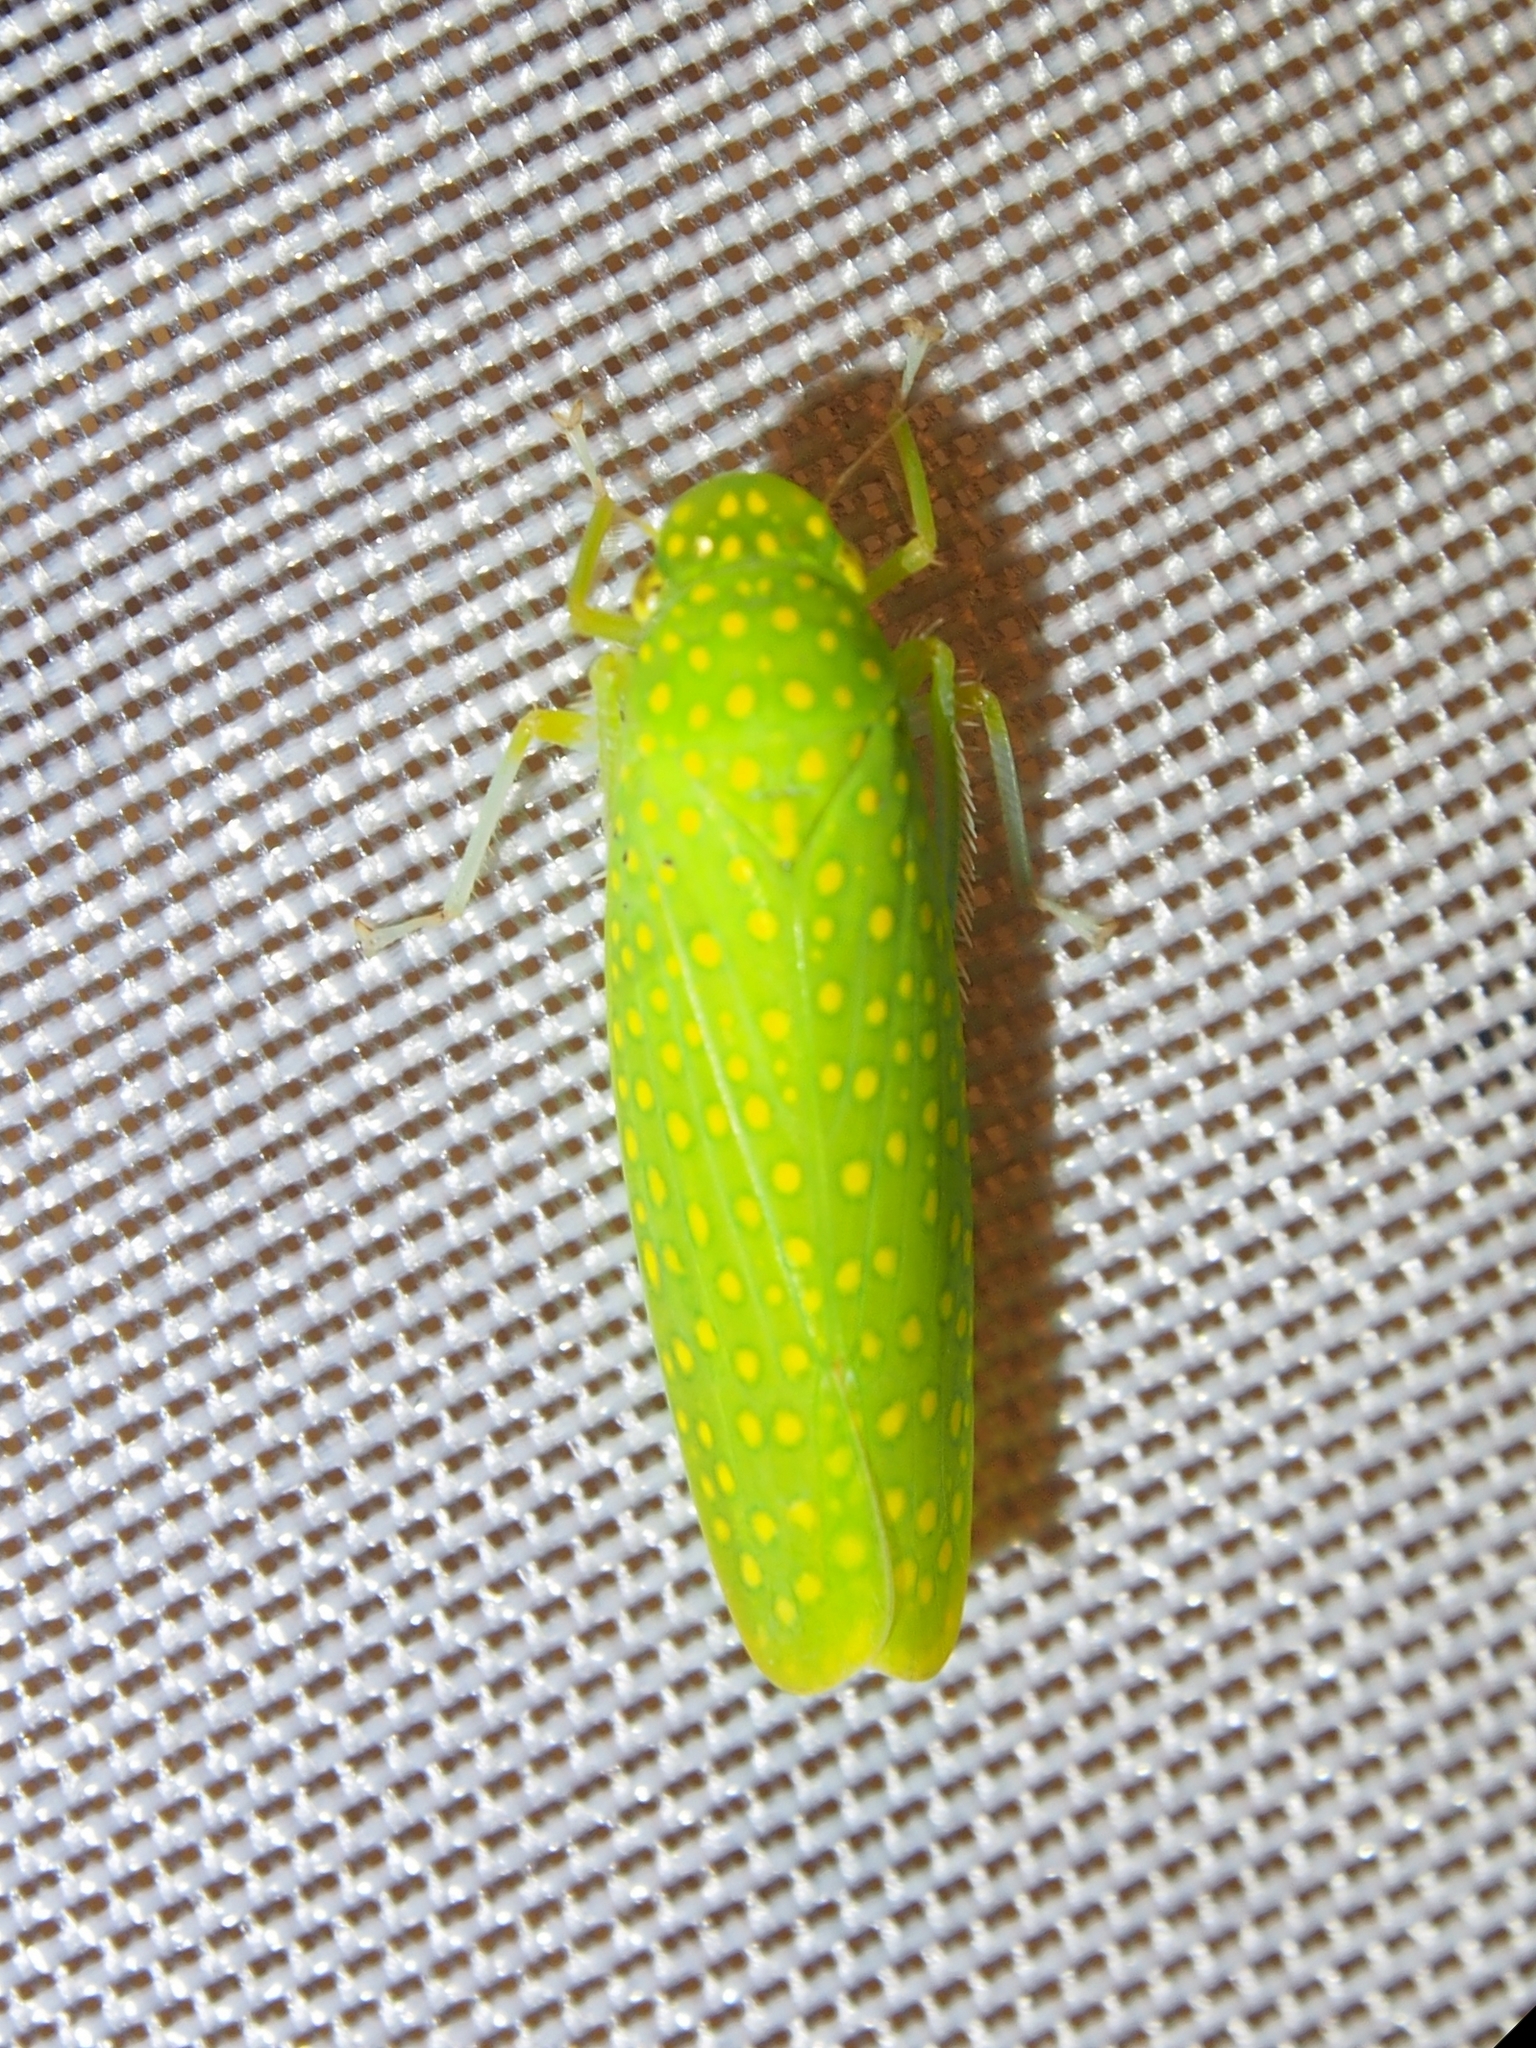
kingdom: Animalia
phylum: Arthropoda
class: Insecta
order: Hemiptera
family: Cicadellidae
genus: Paromenia
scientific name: Paromenia isabellina
